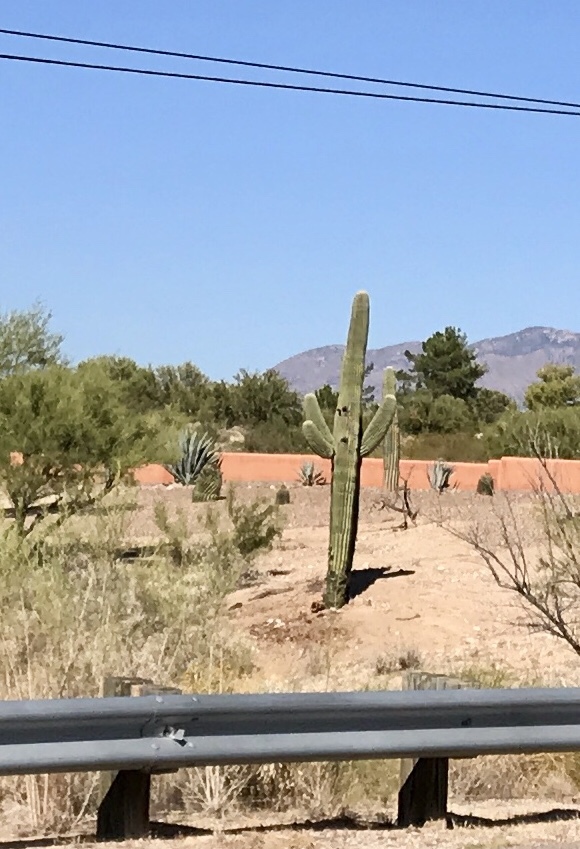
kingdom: Plantae
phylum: Tracheophyta
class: Magnoliopsida
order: Caryophyllales
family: Cactaceae
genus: Carnegiea
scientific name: Carnegiea gigantea
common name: Saguaro
